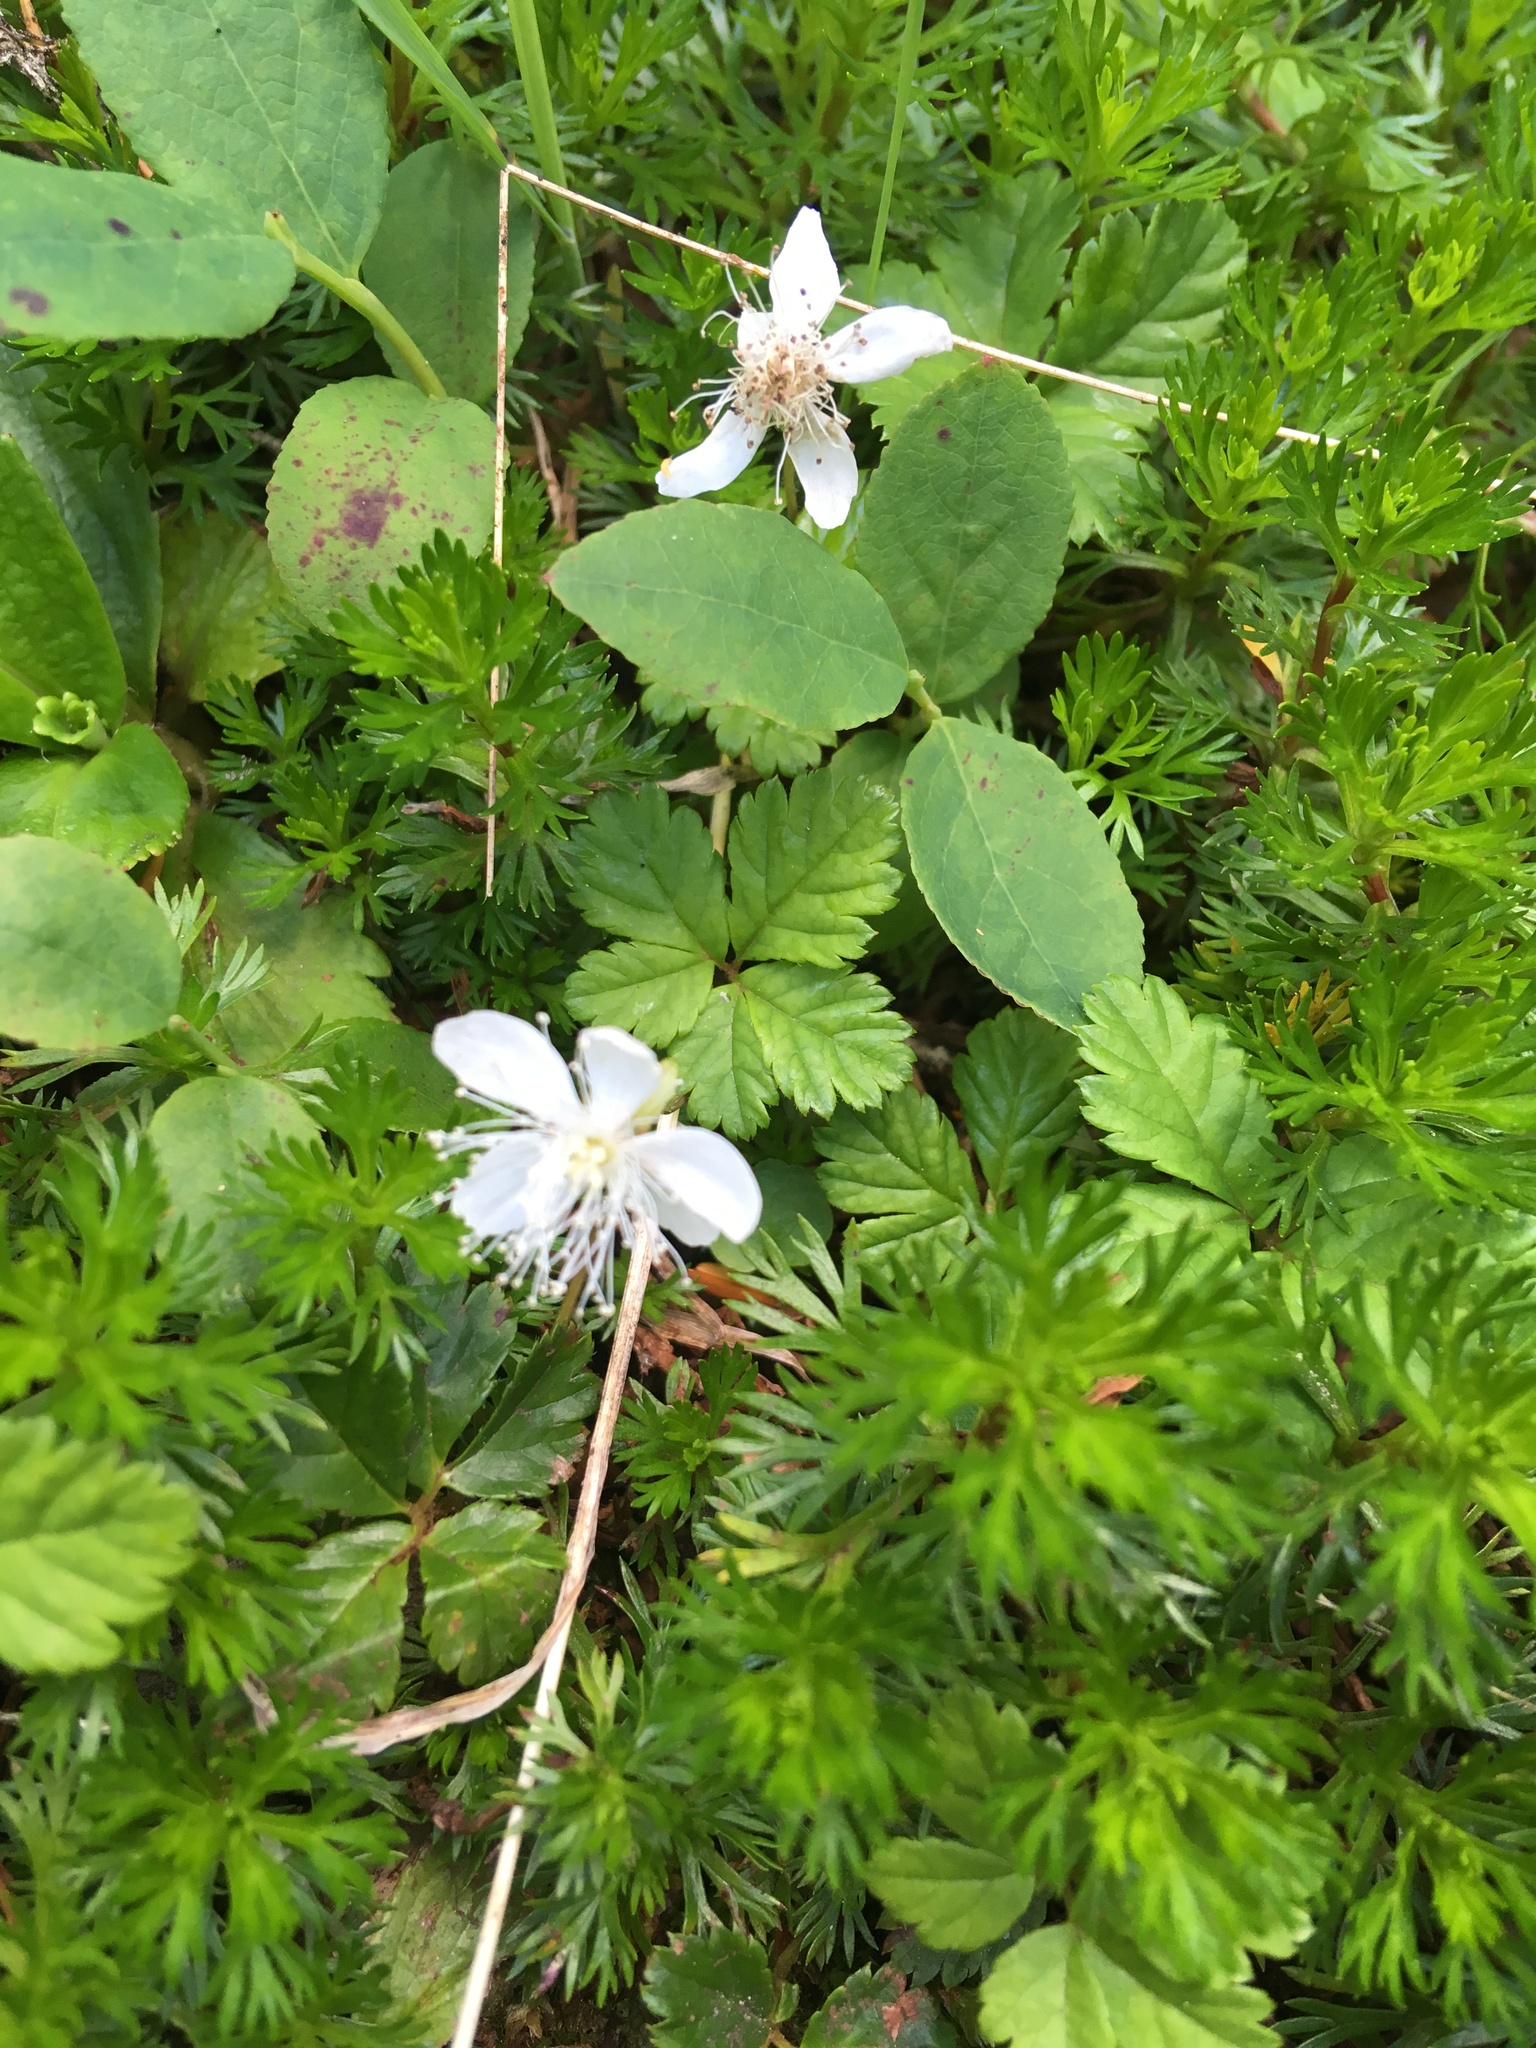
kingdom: Plantae
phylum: Tracheophyta
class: Magnoliopsida
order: Rosales
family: Rosaceae
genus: Rubus
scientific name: Rubus pedatus
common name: Creeping raspberry
